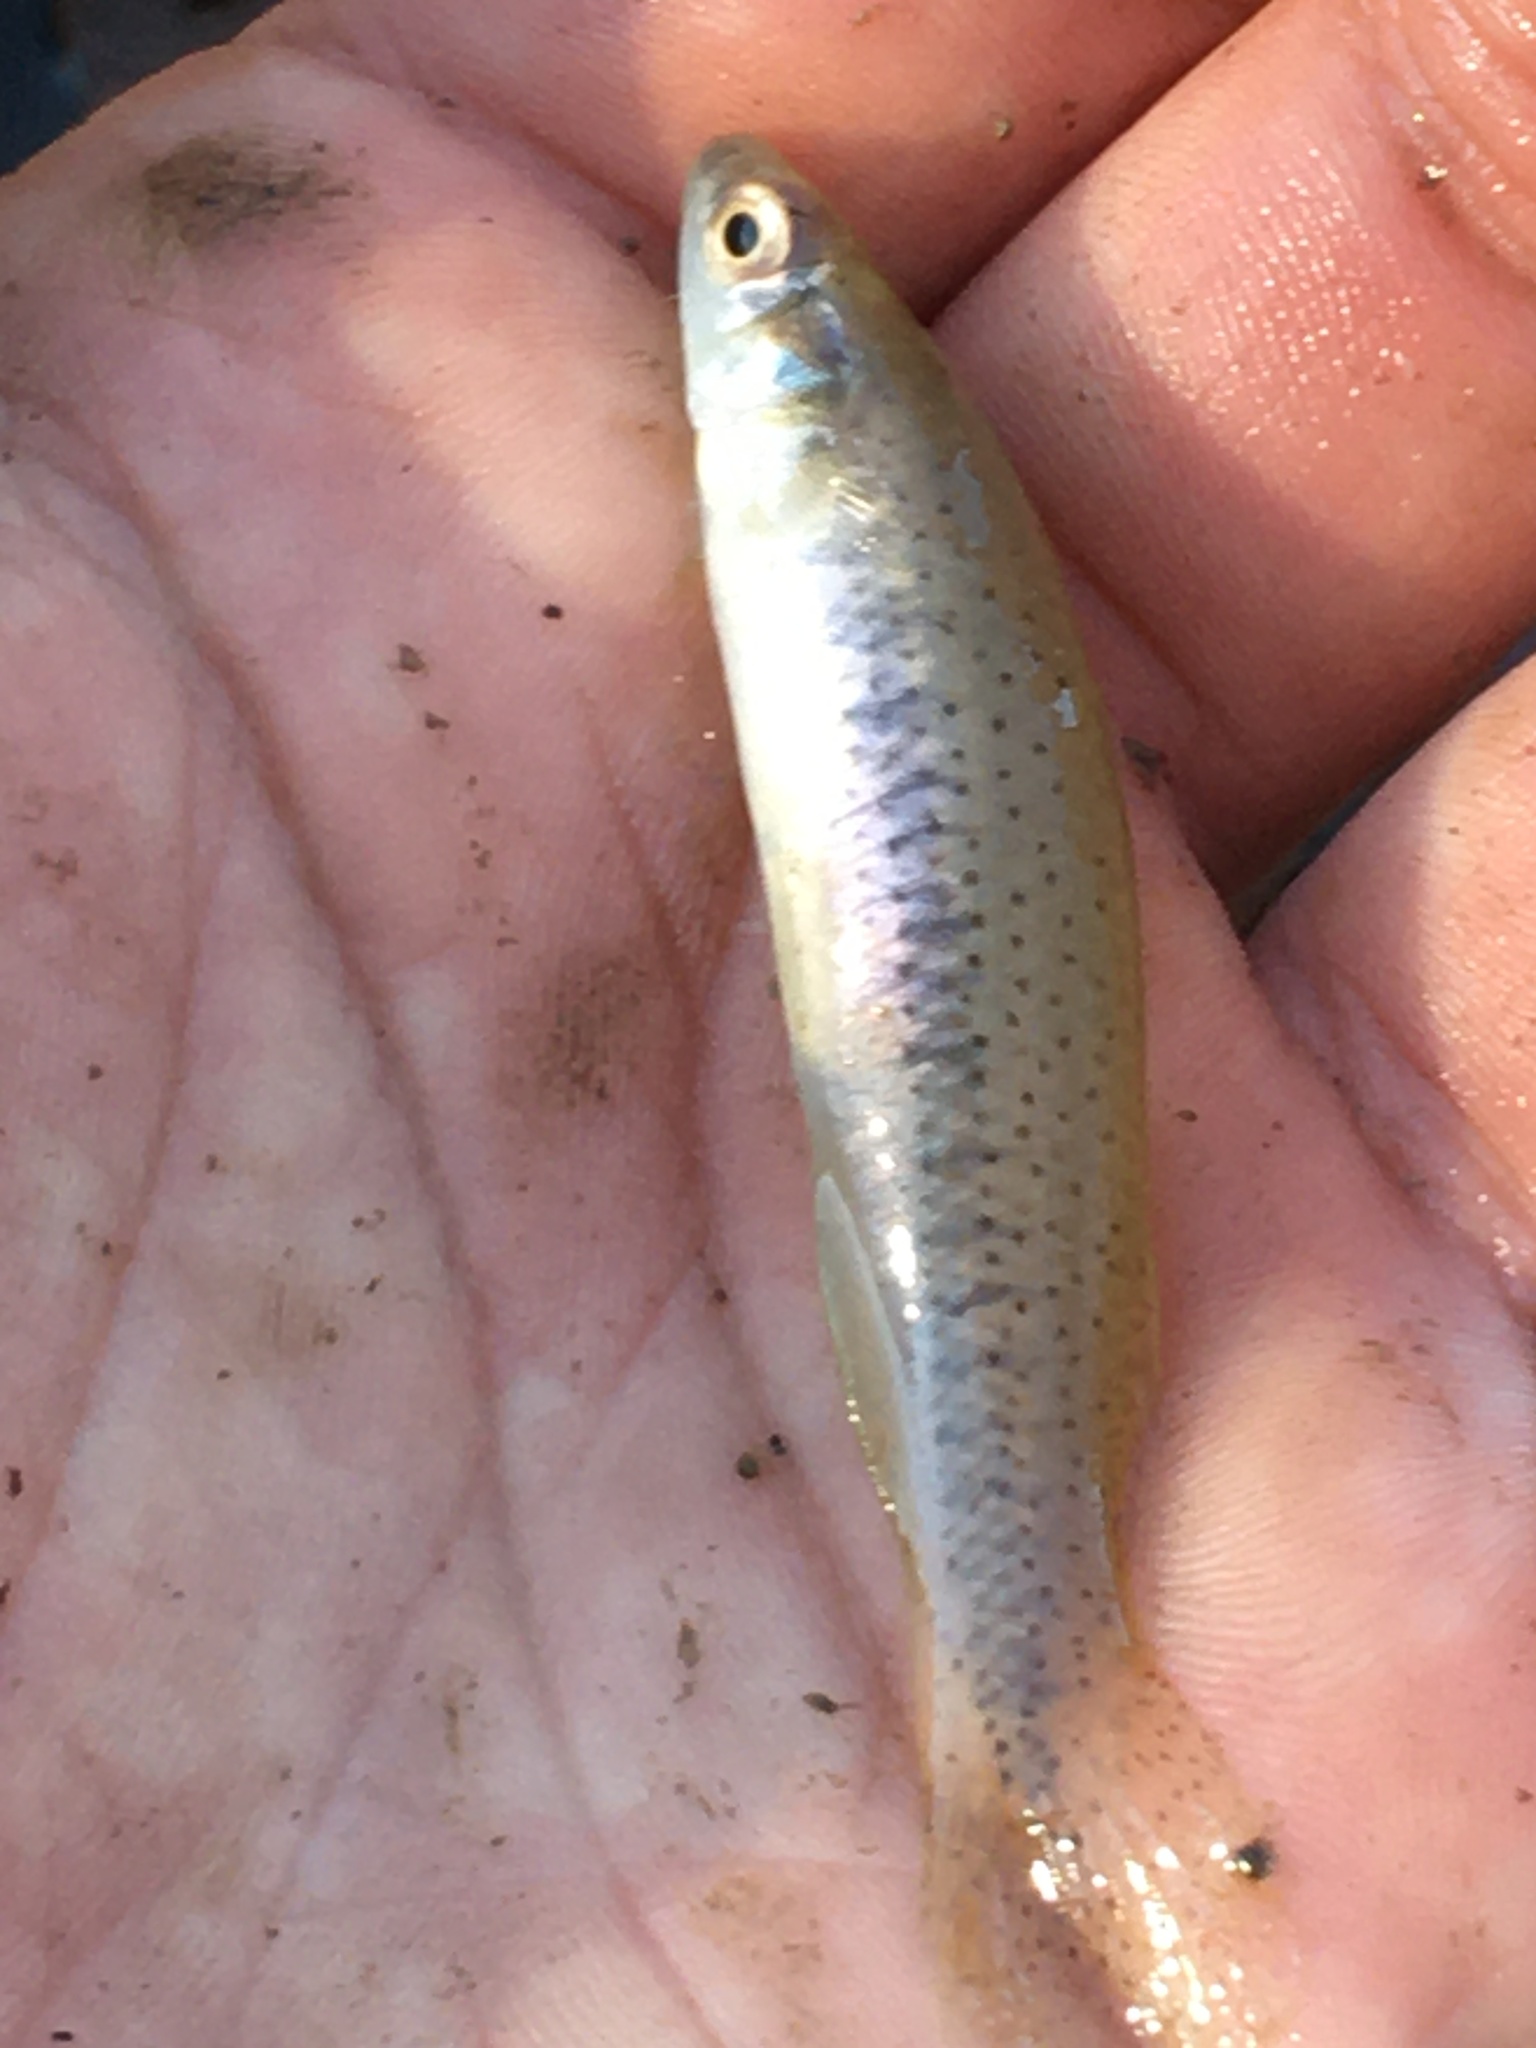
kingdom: Animalia
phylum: Chordata
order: Cyprinodontiformes
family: Fundulidae
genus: Fundulus
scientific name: Fundulus olivaceus
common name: Blackspotted topminnow
